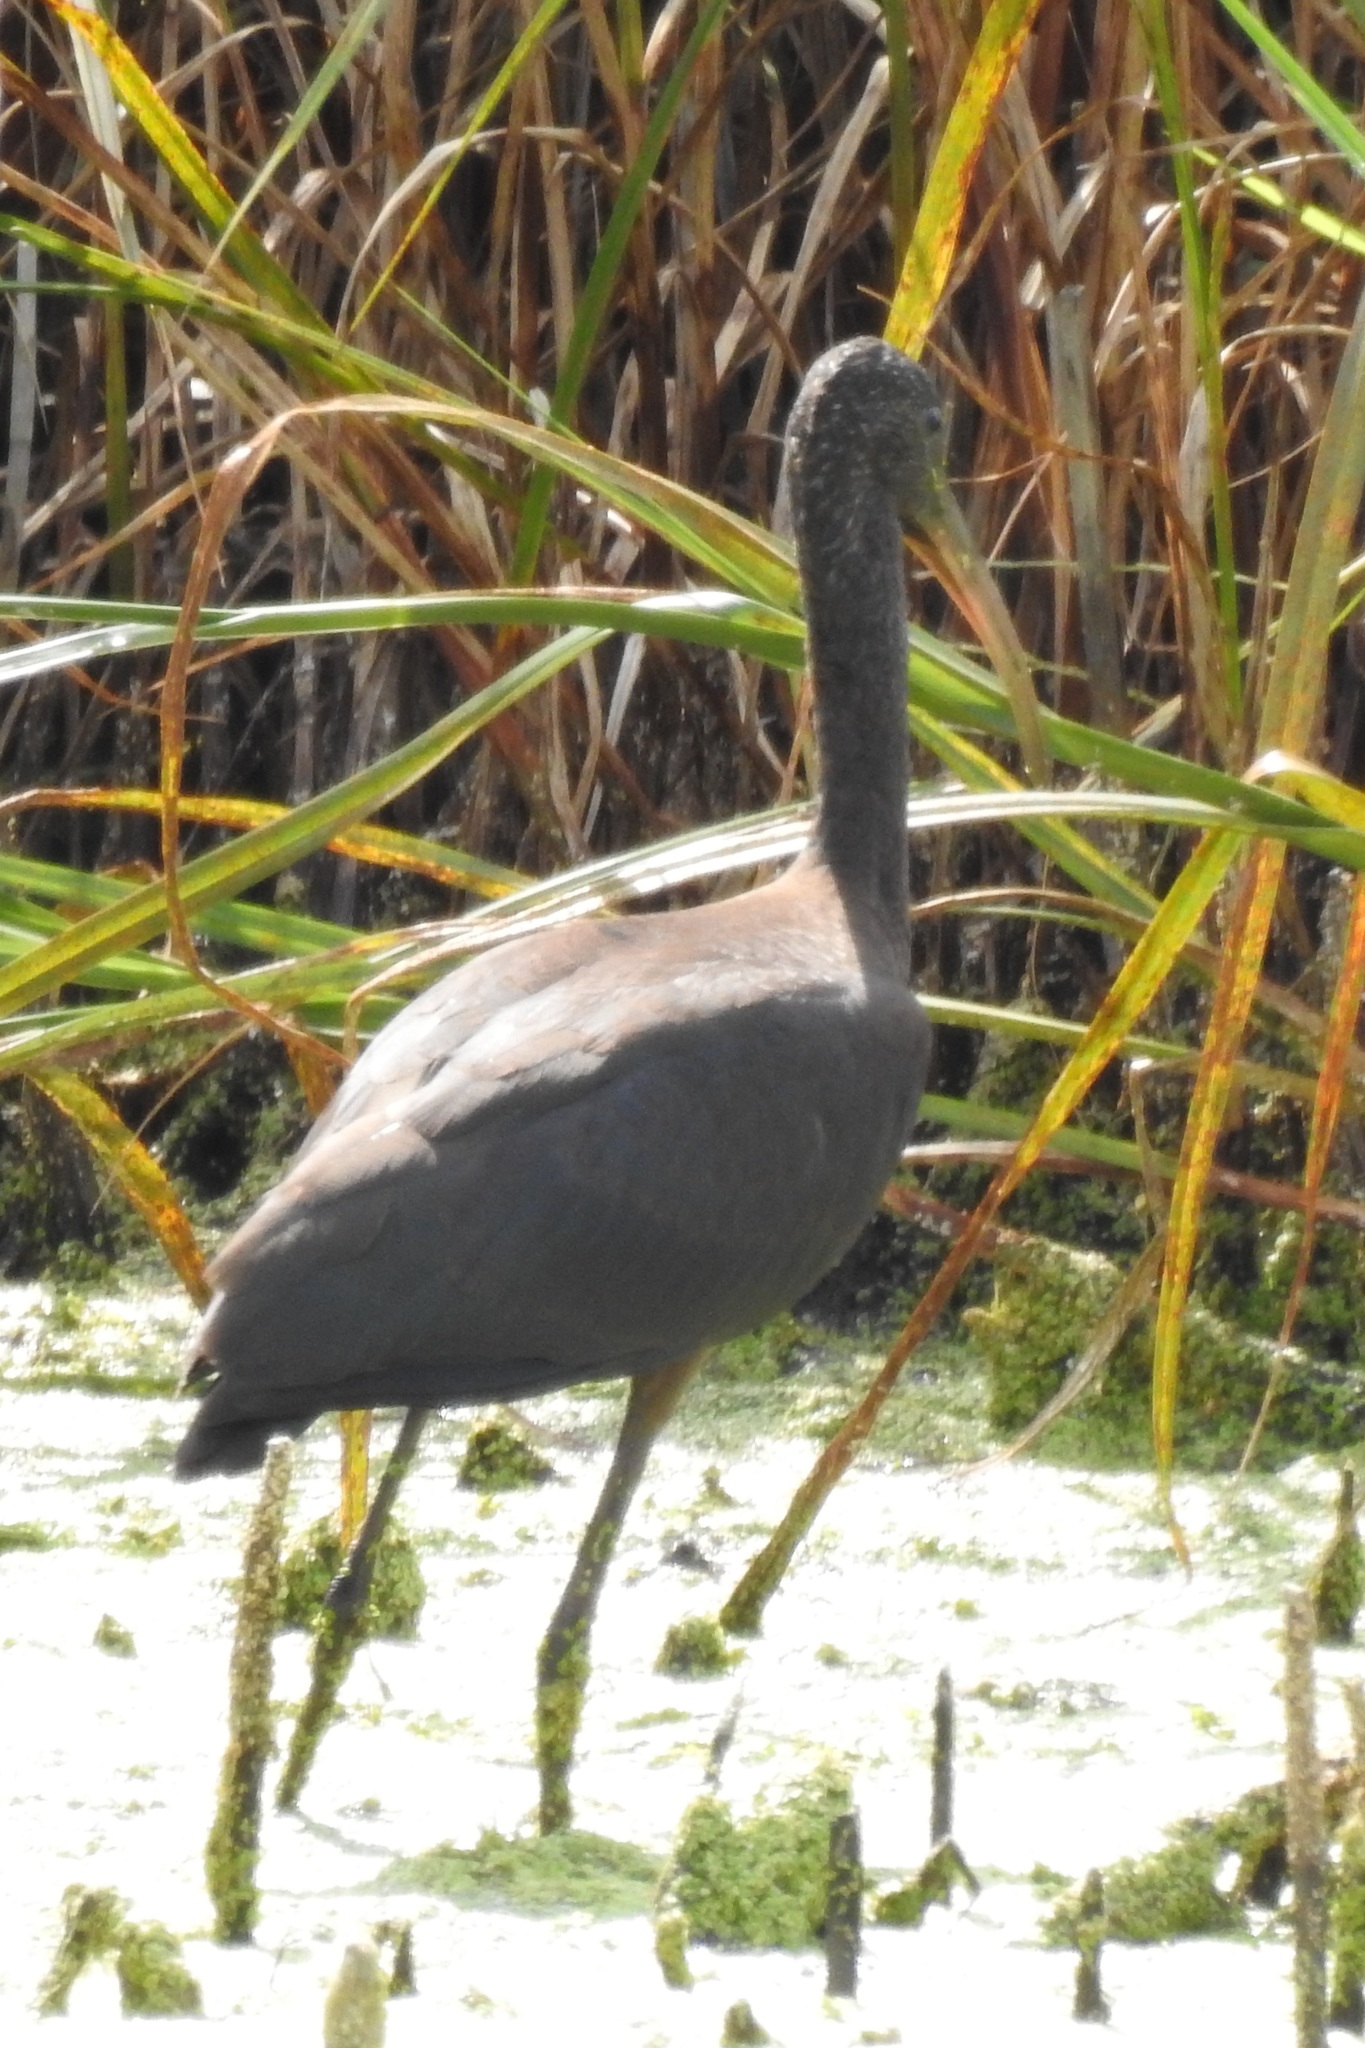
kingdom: Animalia
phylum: Chordata
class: Aves
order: Pelecaniformes
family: Threskiornithidae
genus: Plegadis
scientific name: Plegadis falcinellus
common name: Glossy ibis
